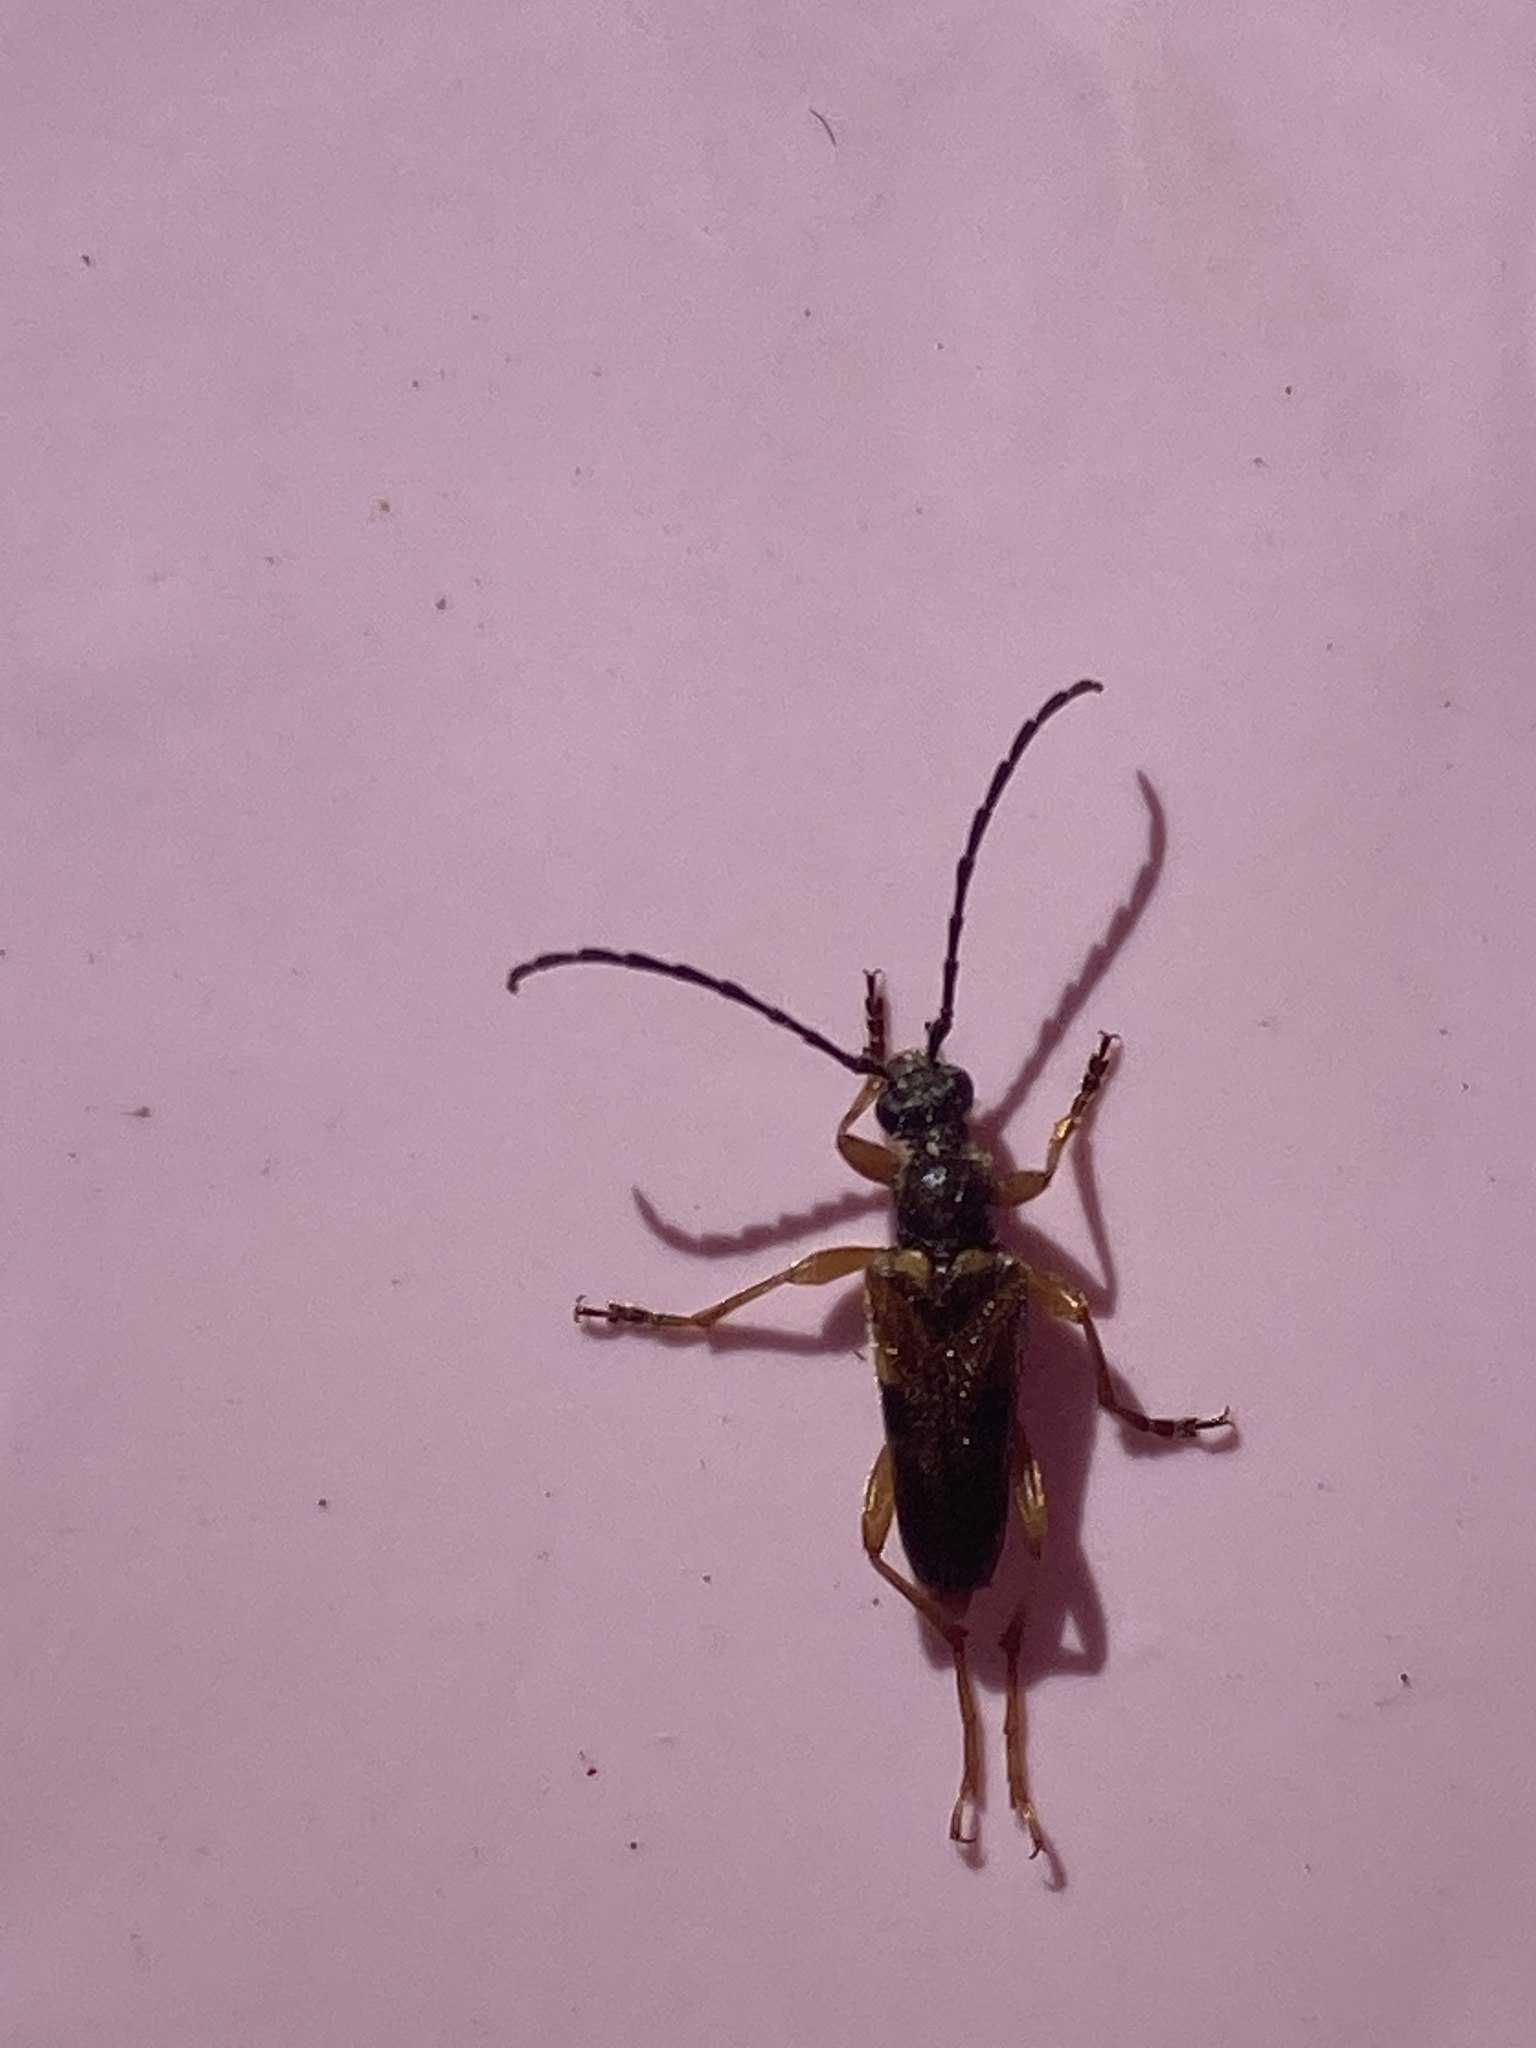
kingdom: Animalia
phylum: Arthropoda
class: Insecta
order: Coleoptera
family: Cerambycidae
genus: Xestoleptura
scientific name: Xestoleptura crassipes
